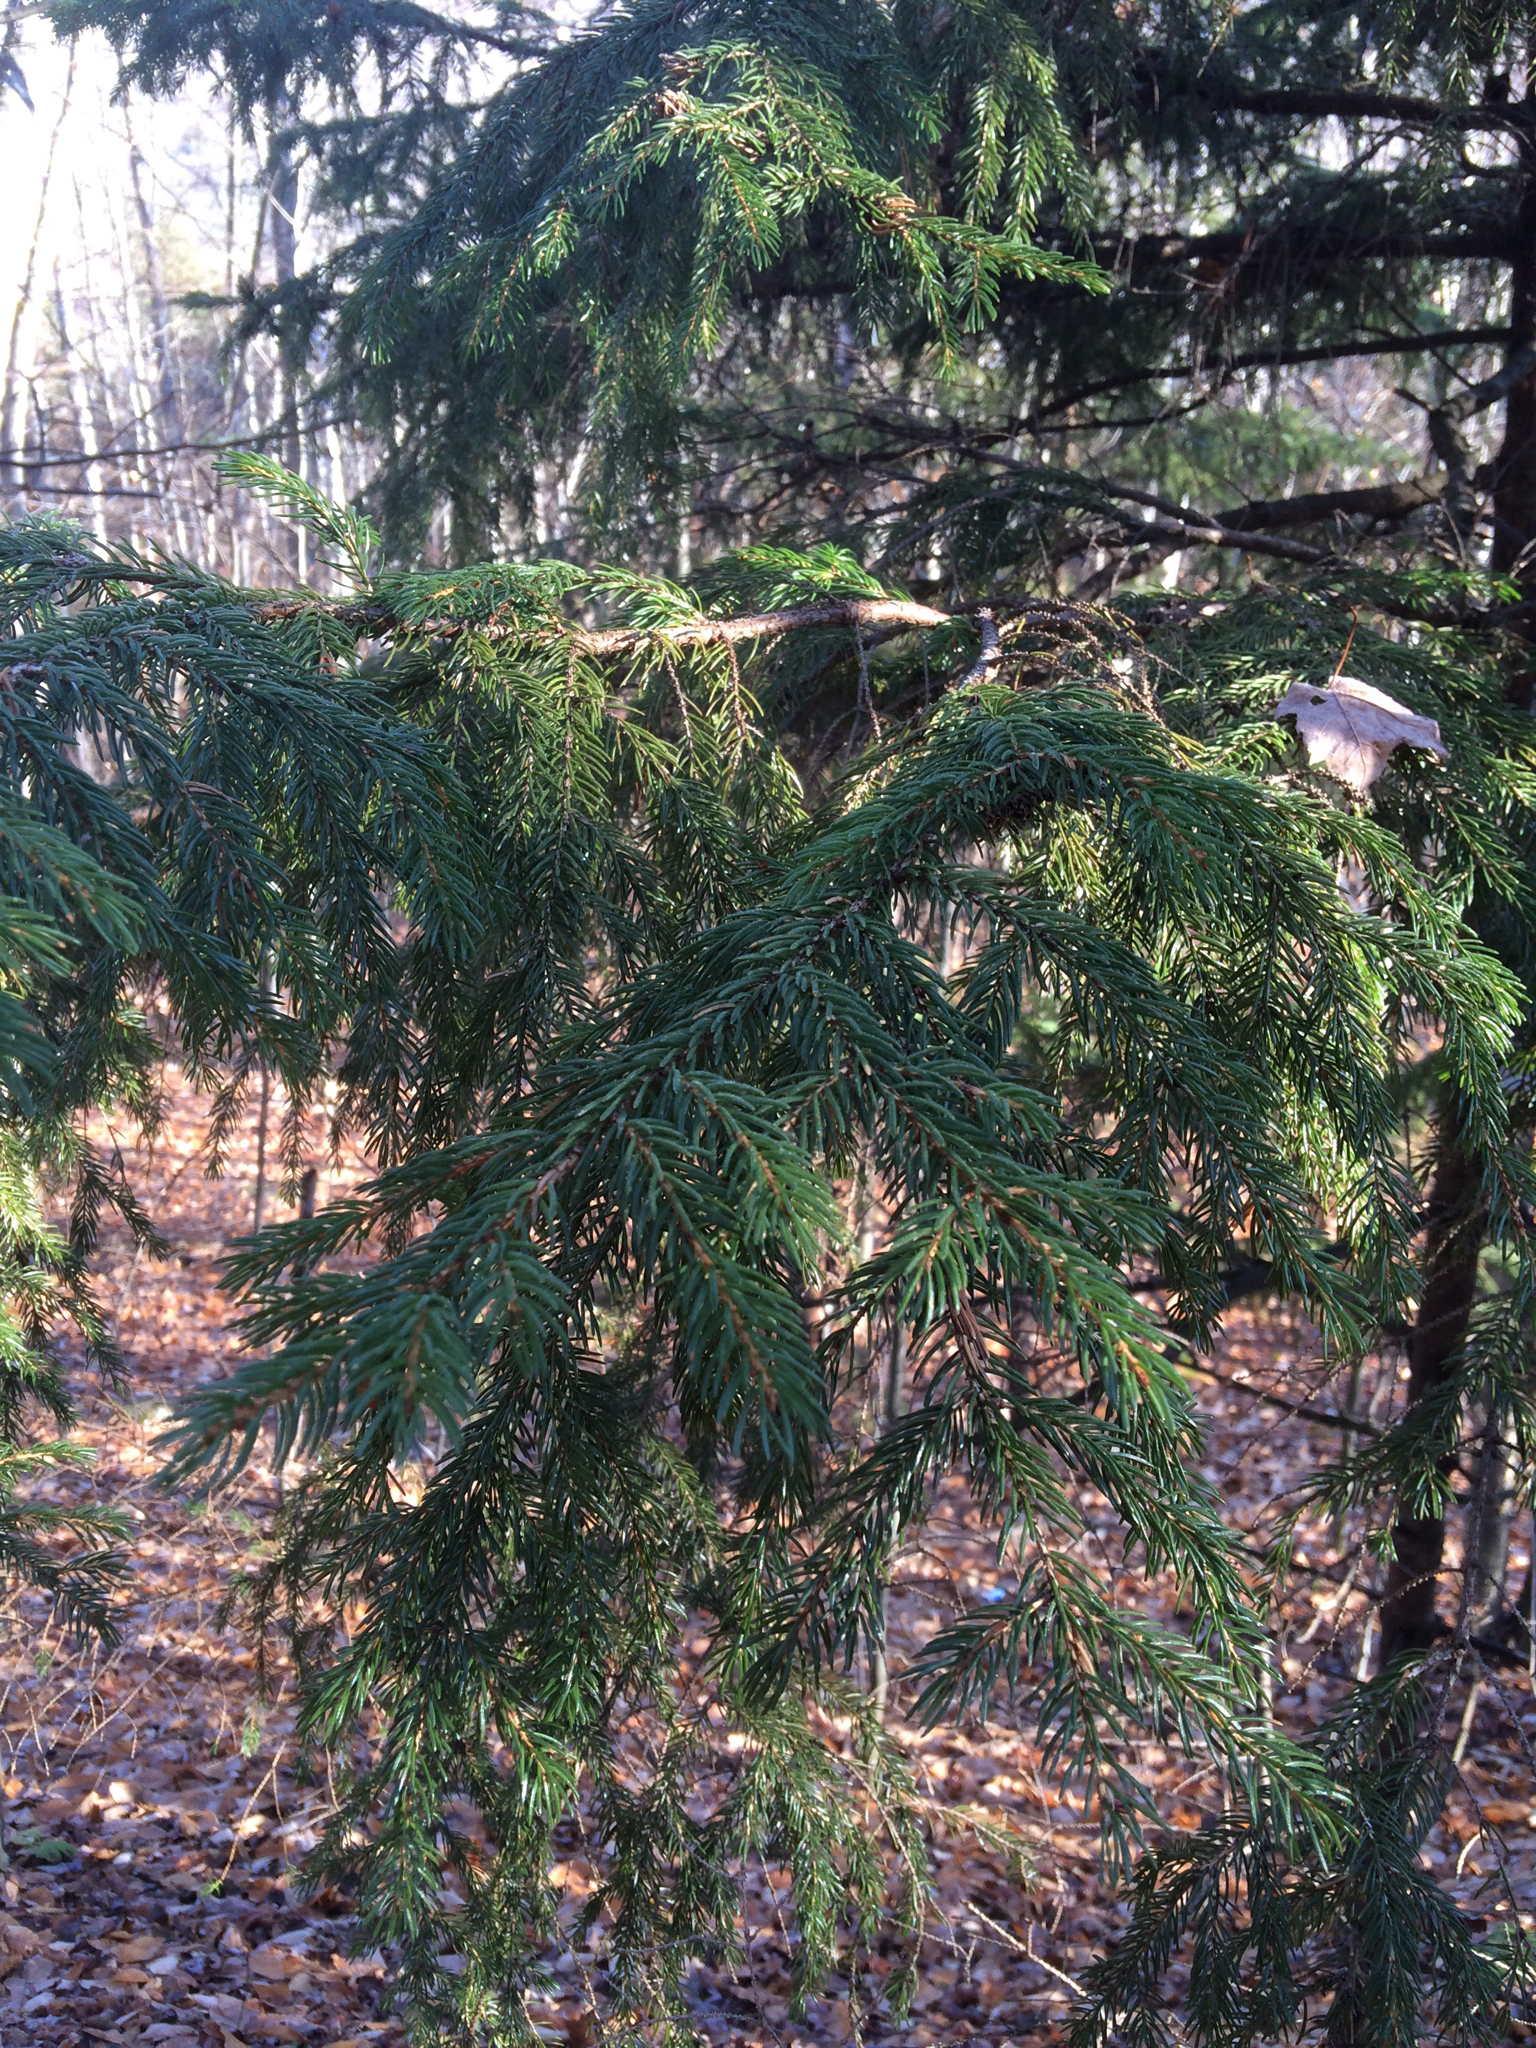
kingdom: Plantae
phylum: Tracheophyta
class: Pinopsida
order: Pinales
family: Pinaceae
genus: Picea
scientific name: Picea rubens
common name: Red spruce
